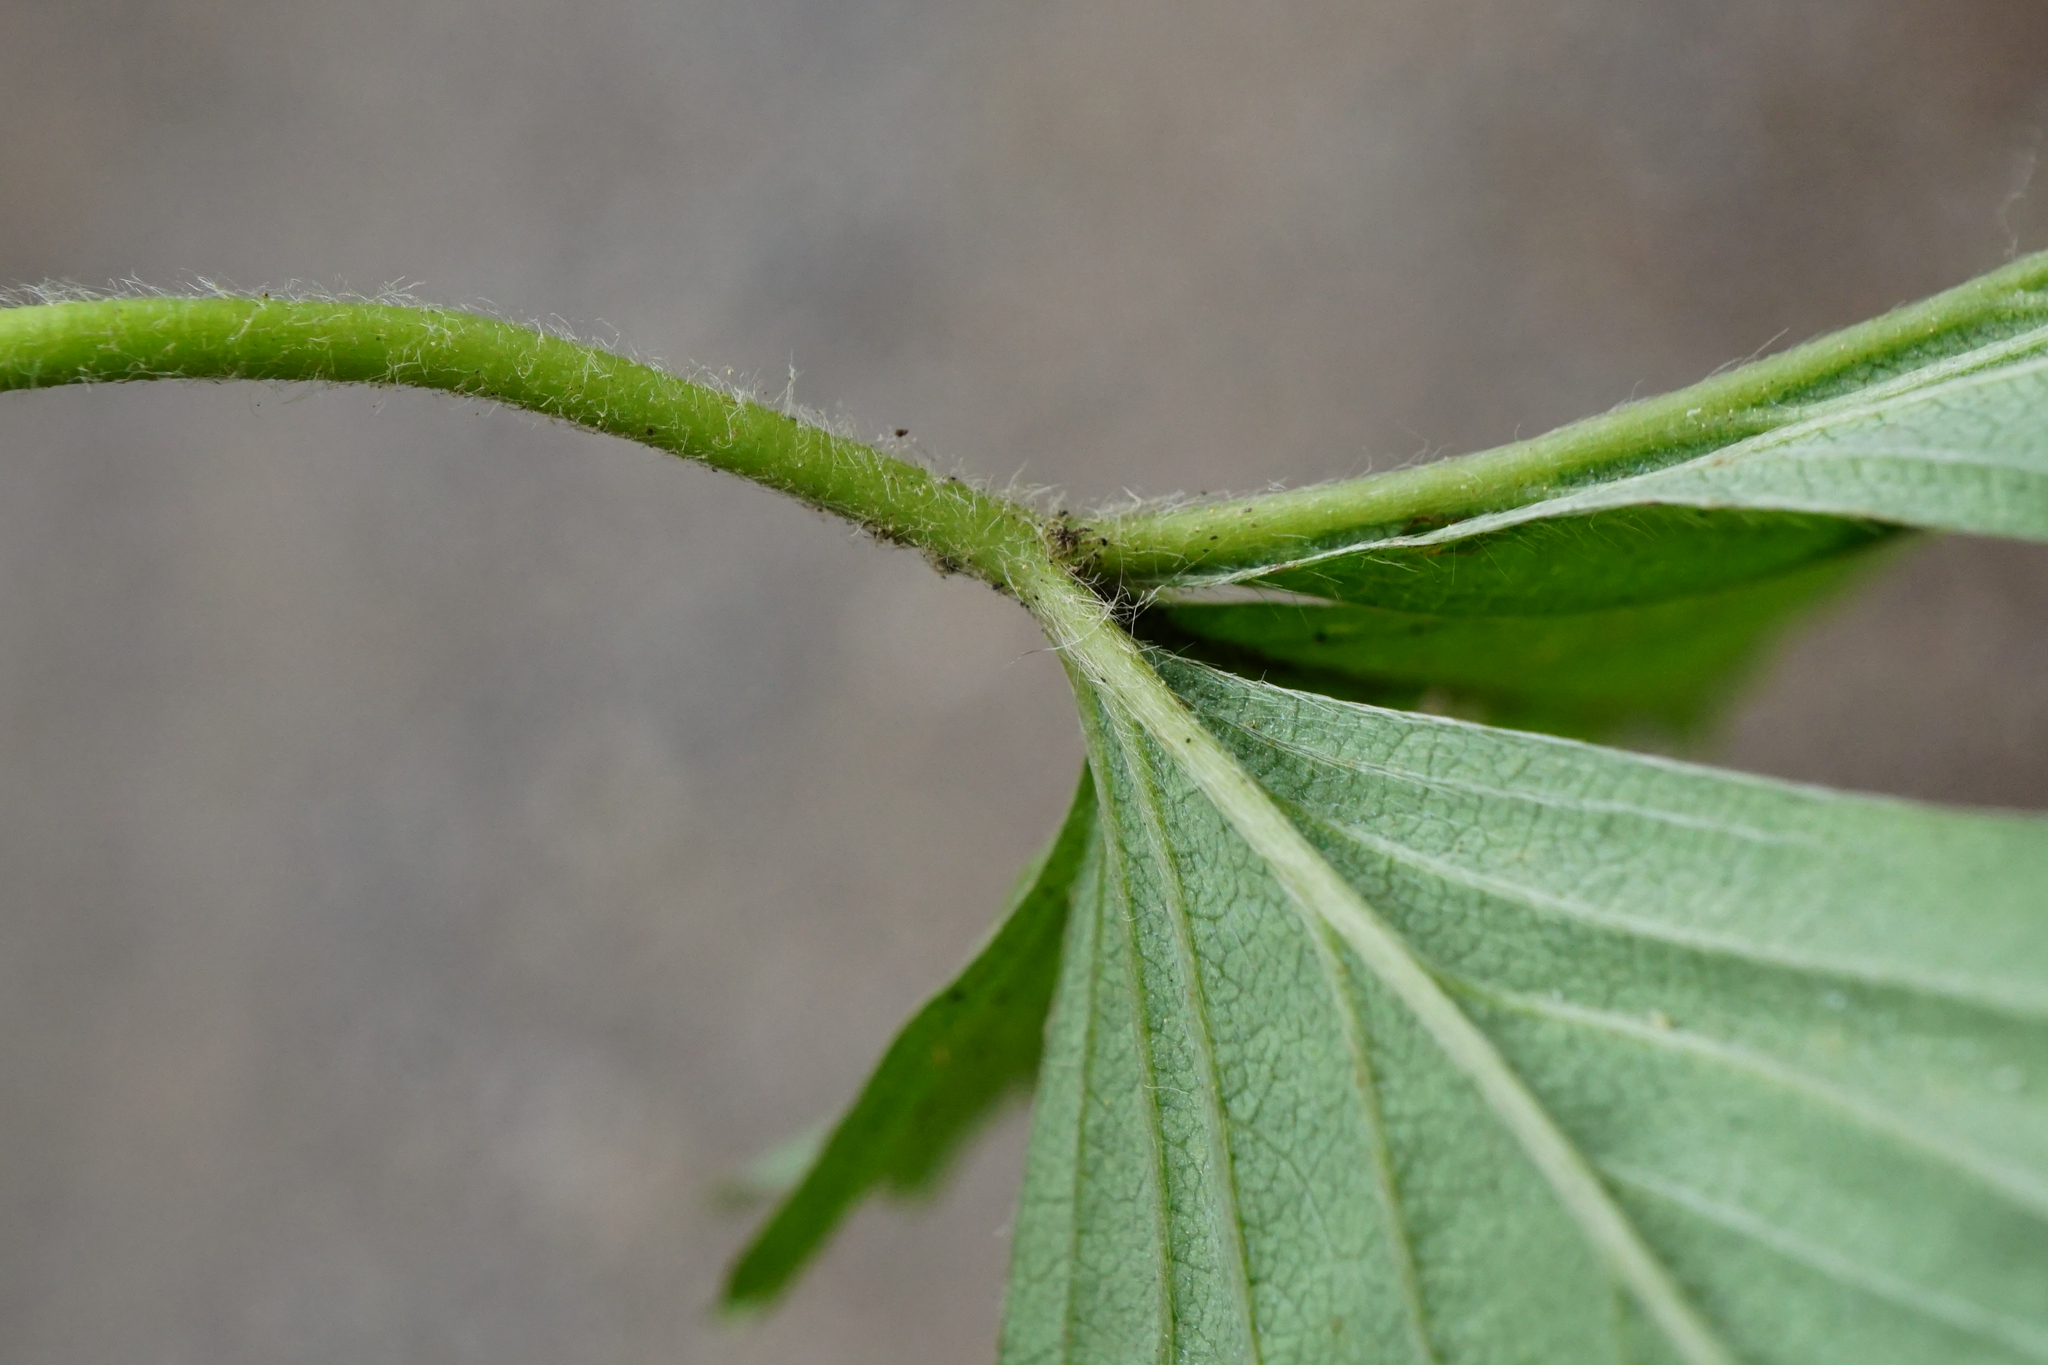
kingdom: Plantae
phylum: Tracheophyta
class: Magnoliopsida
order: Rosales
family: Rosaceae
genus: Fragaria
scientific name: Fragaria vesca
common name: Wild strawberry
